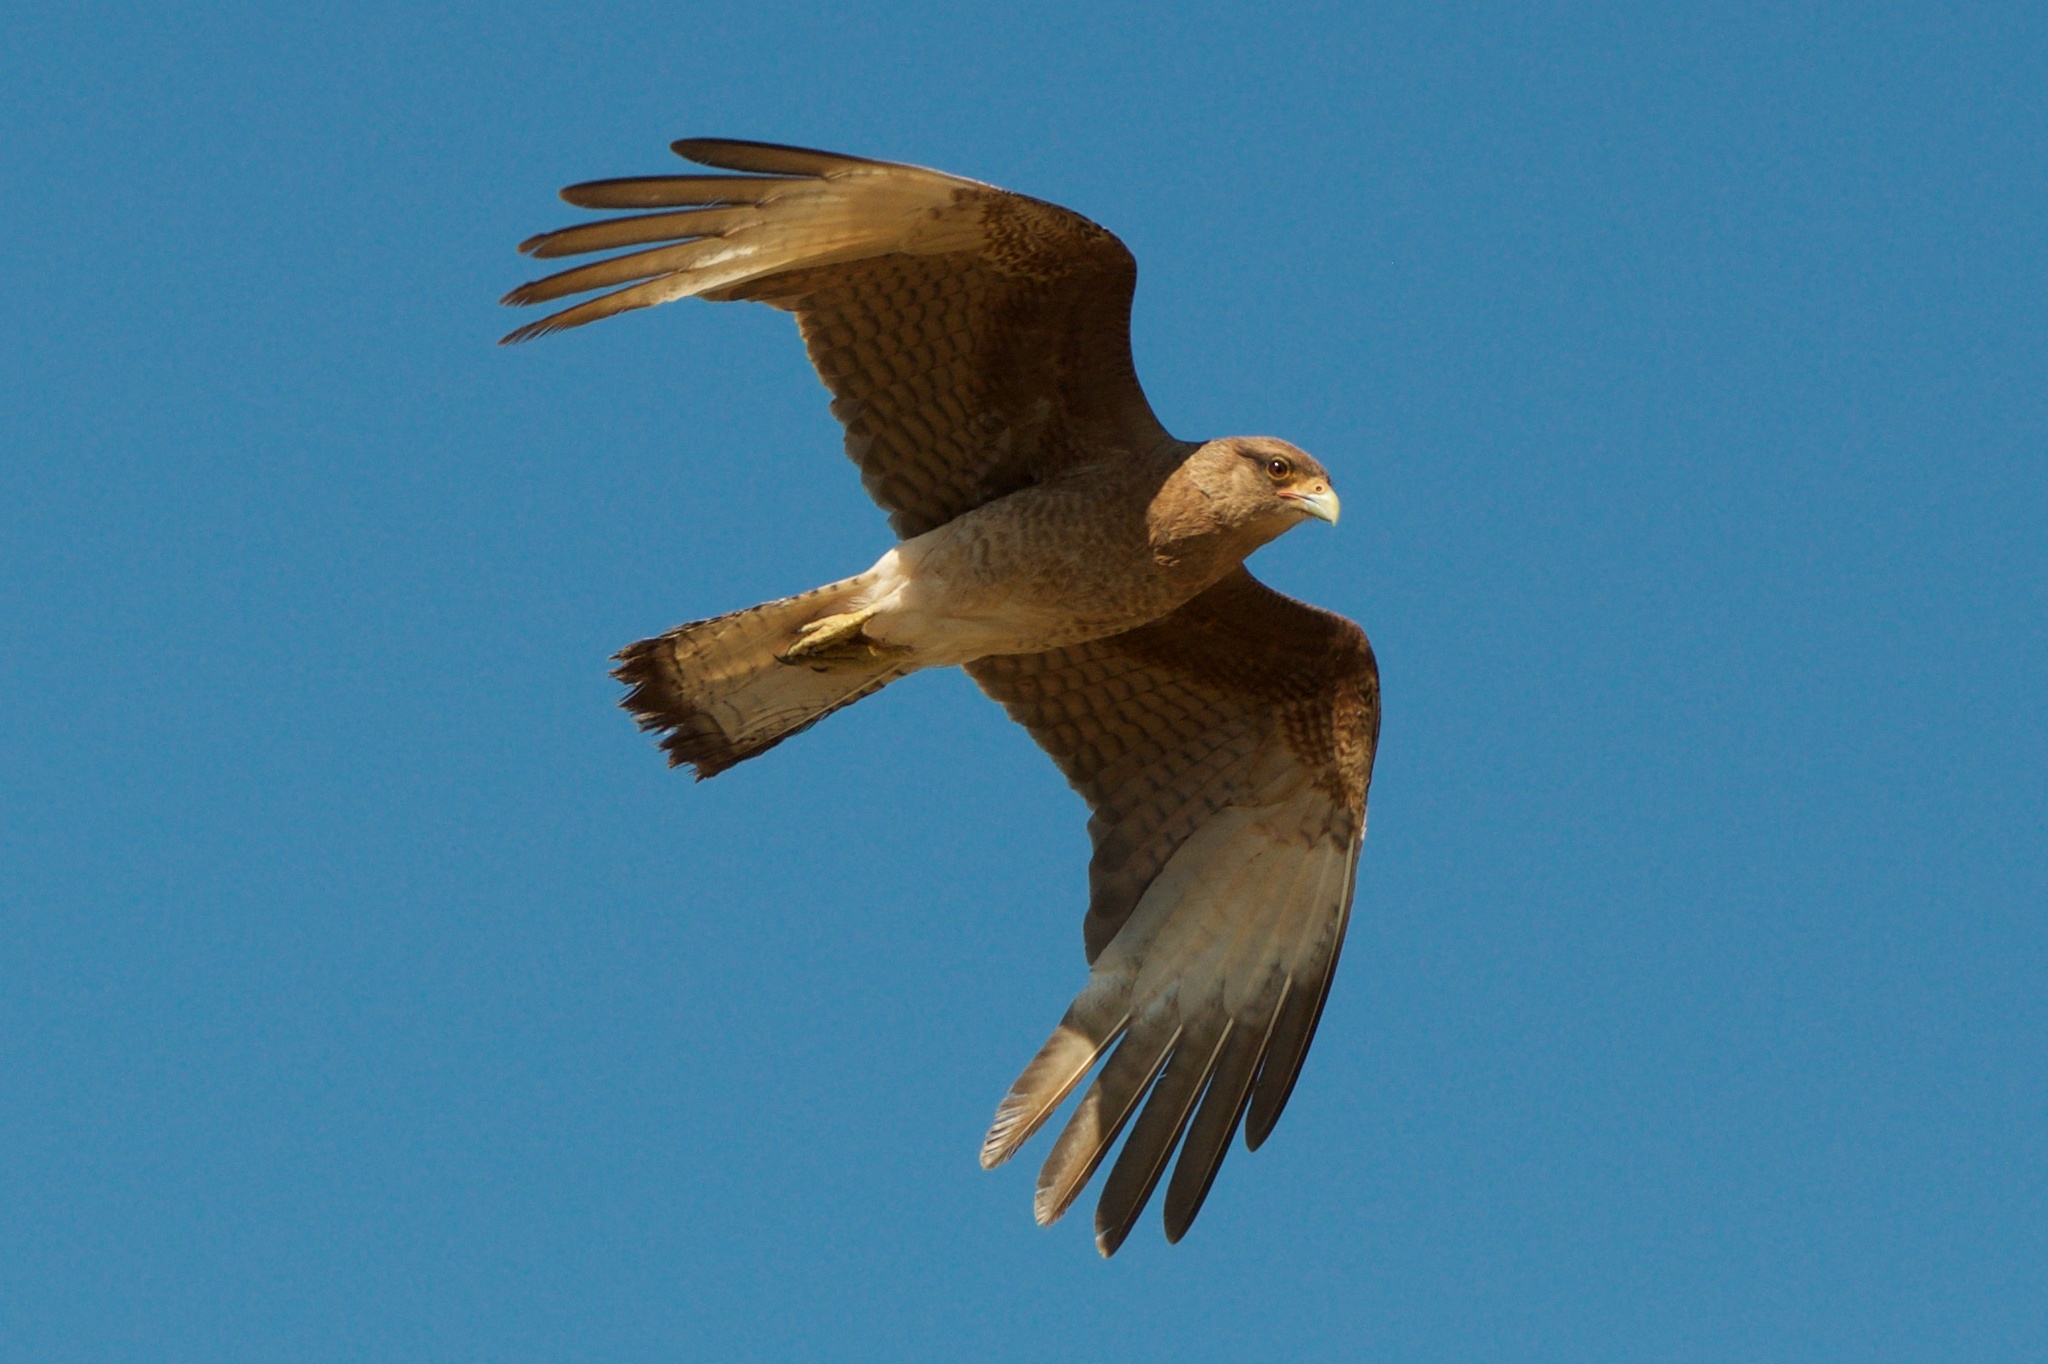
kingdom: Animalia
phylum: Chordata
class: Aves
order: Falconiformes
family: Falconidae
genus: Daptrius
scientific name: Daptrius
